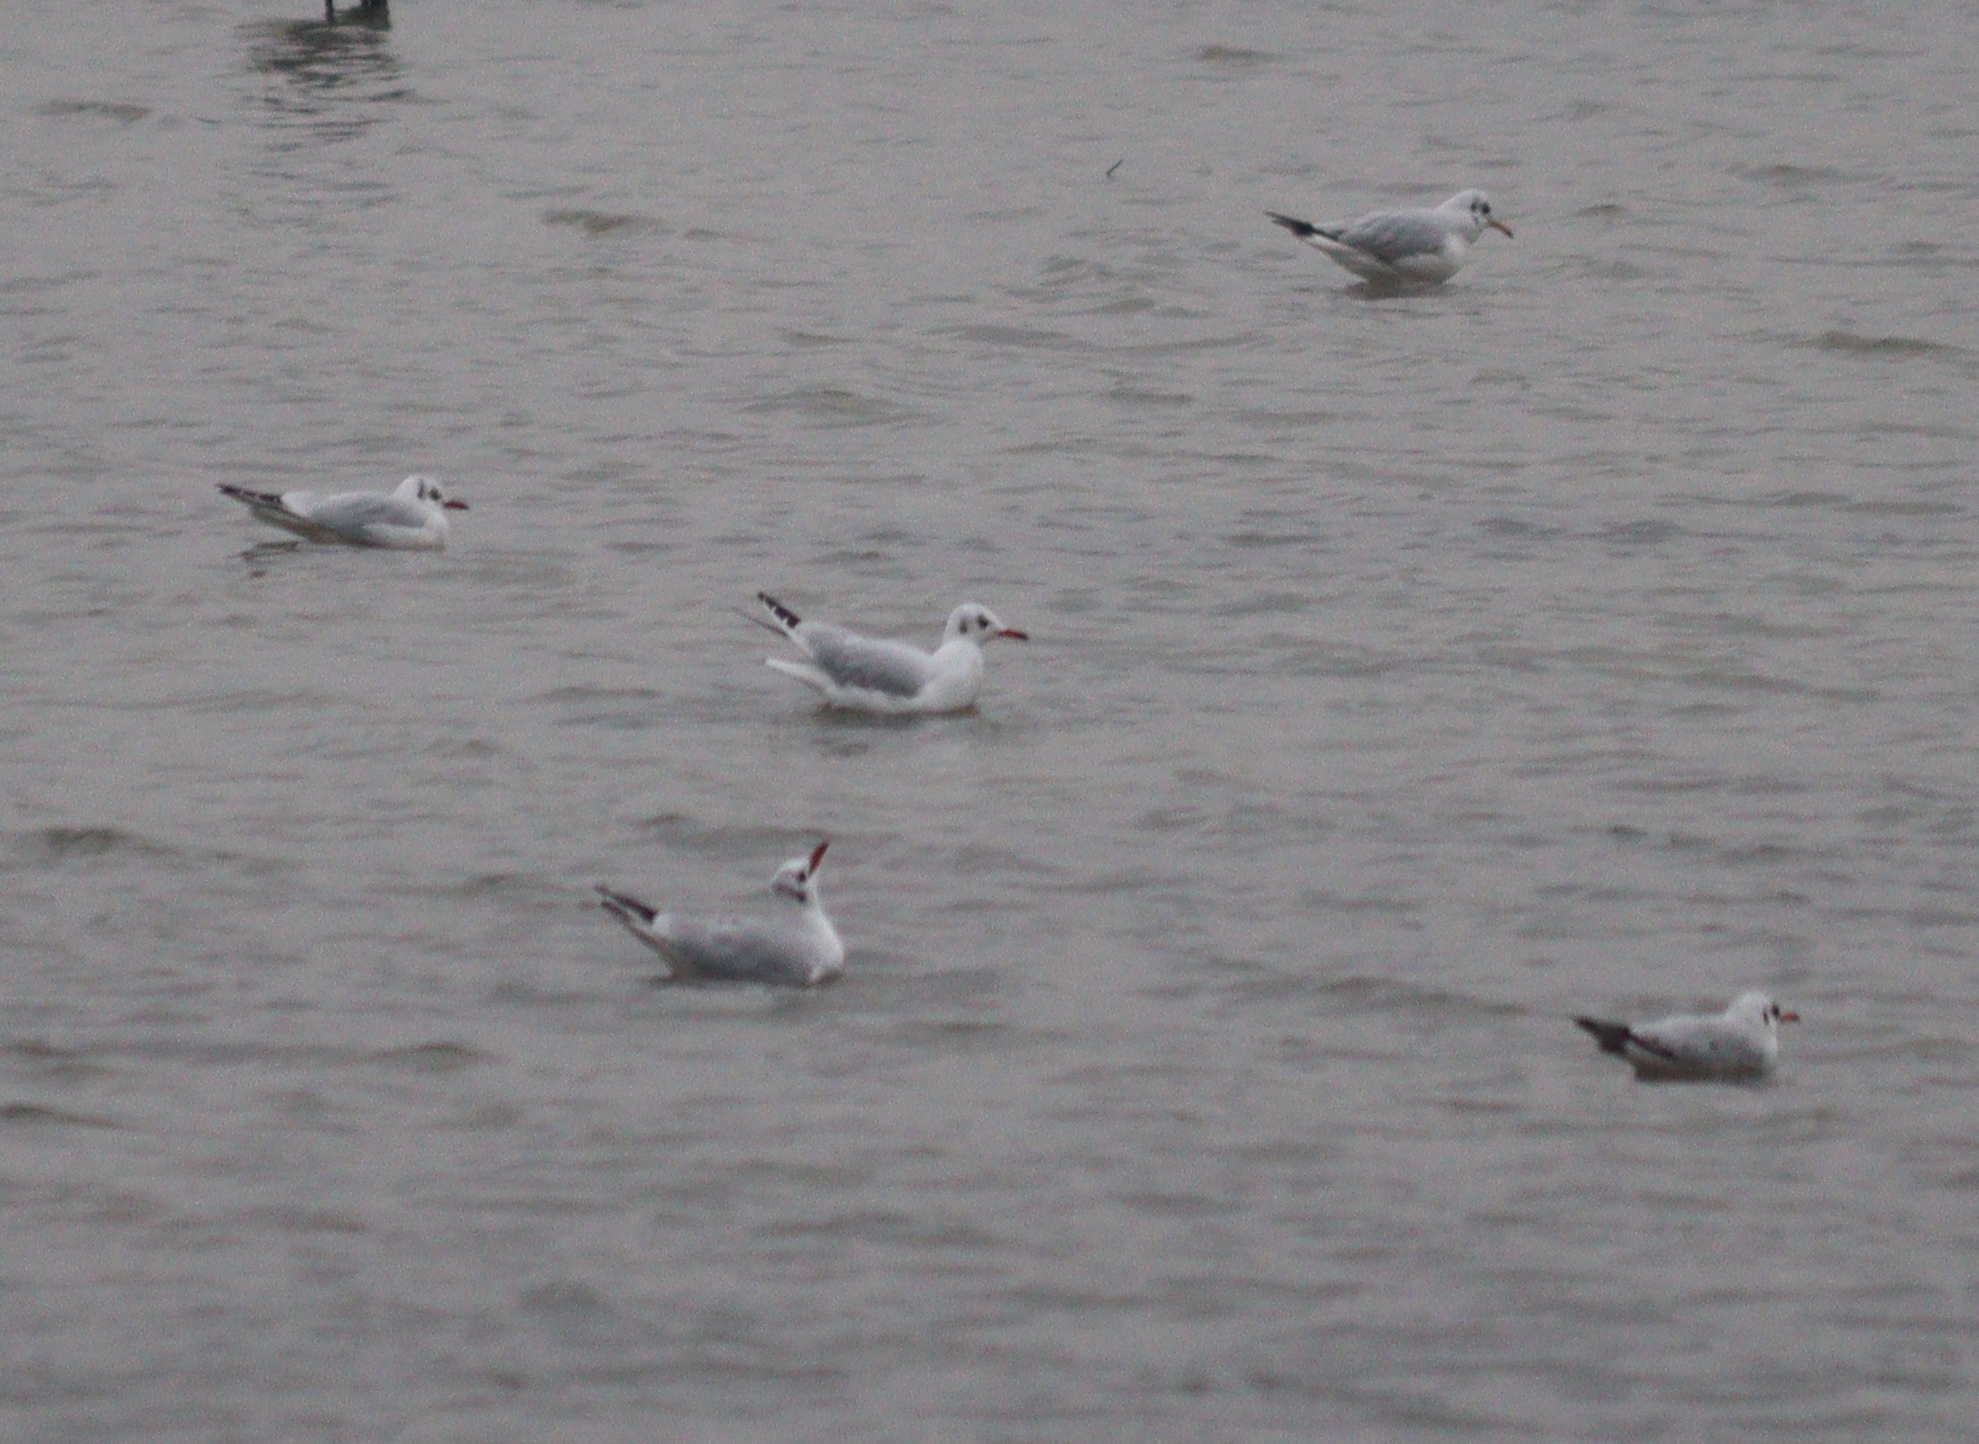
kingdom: Animalia
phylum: Chordata
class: Aves
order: Charadriiformes
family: Laridae
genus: Chroicocephalus
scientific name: Chroicocephalus ridibundus
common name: Black-headed gull
